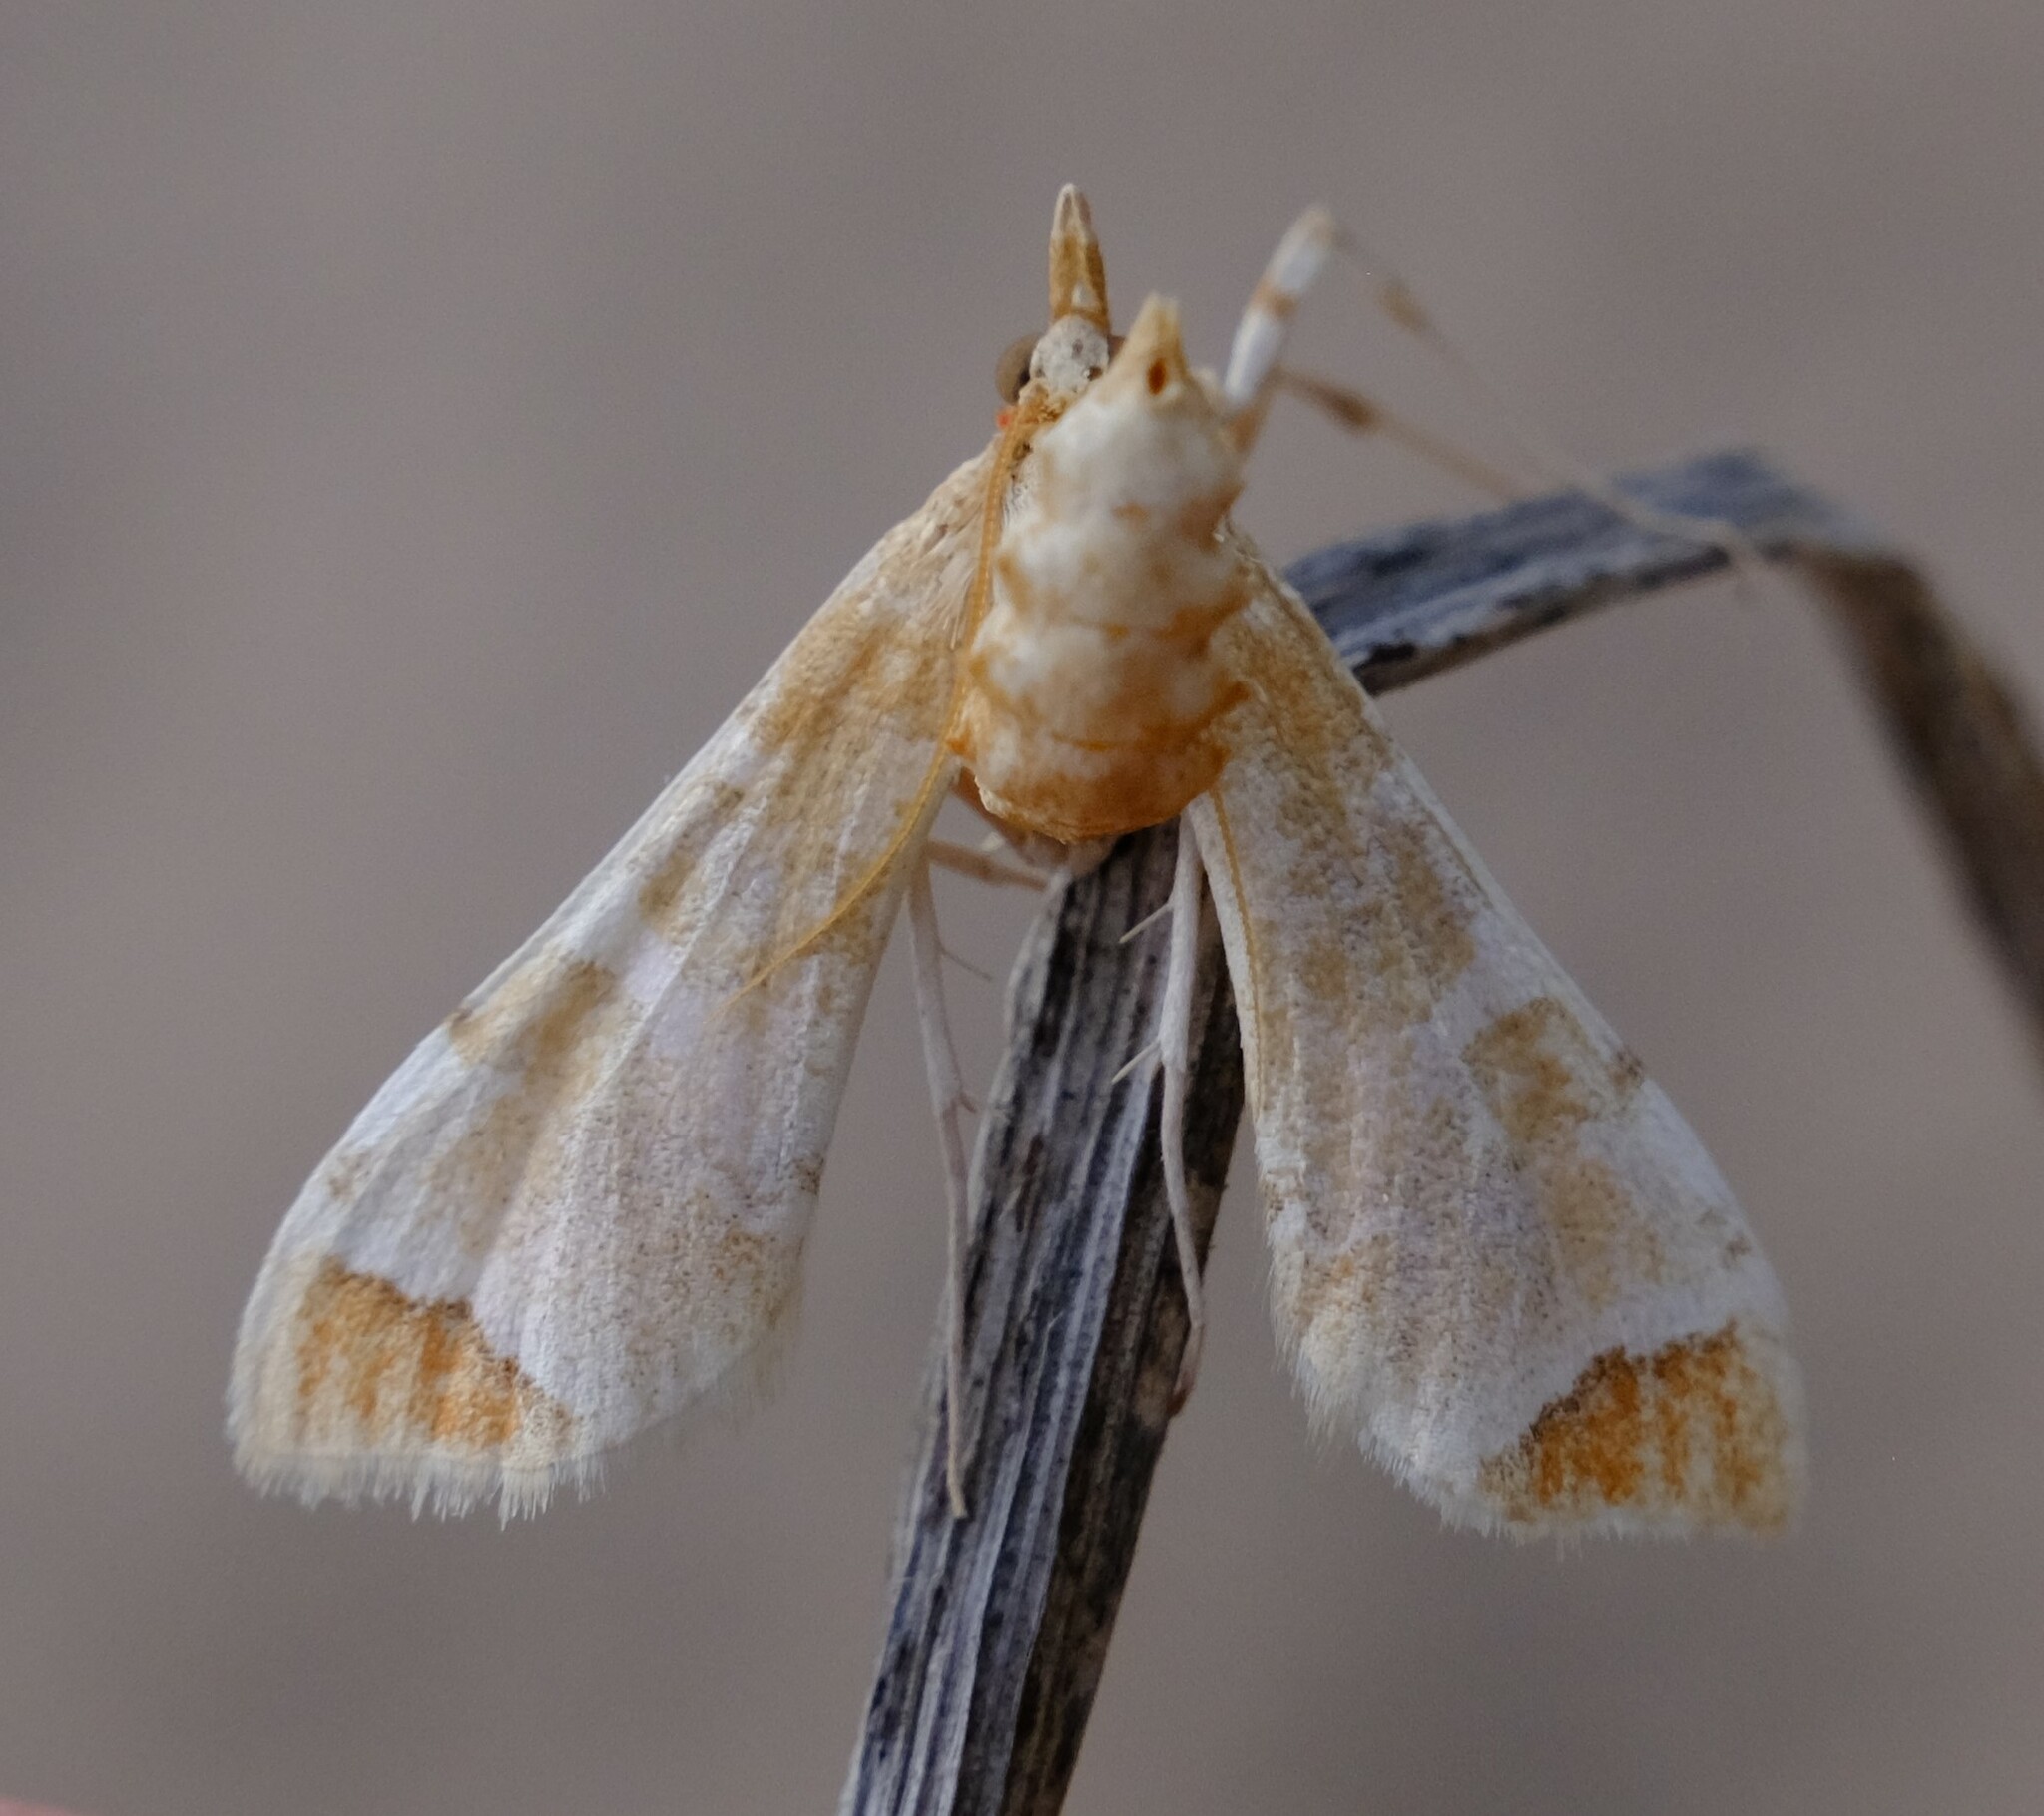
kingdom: Animalia
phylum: Arthropoda
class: Insecta
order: Lepidoptera
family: Crambidae
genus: Sceliodes
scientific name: Sceliodes cordalis
